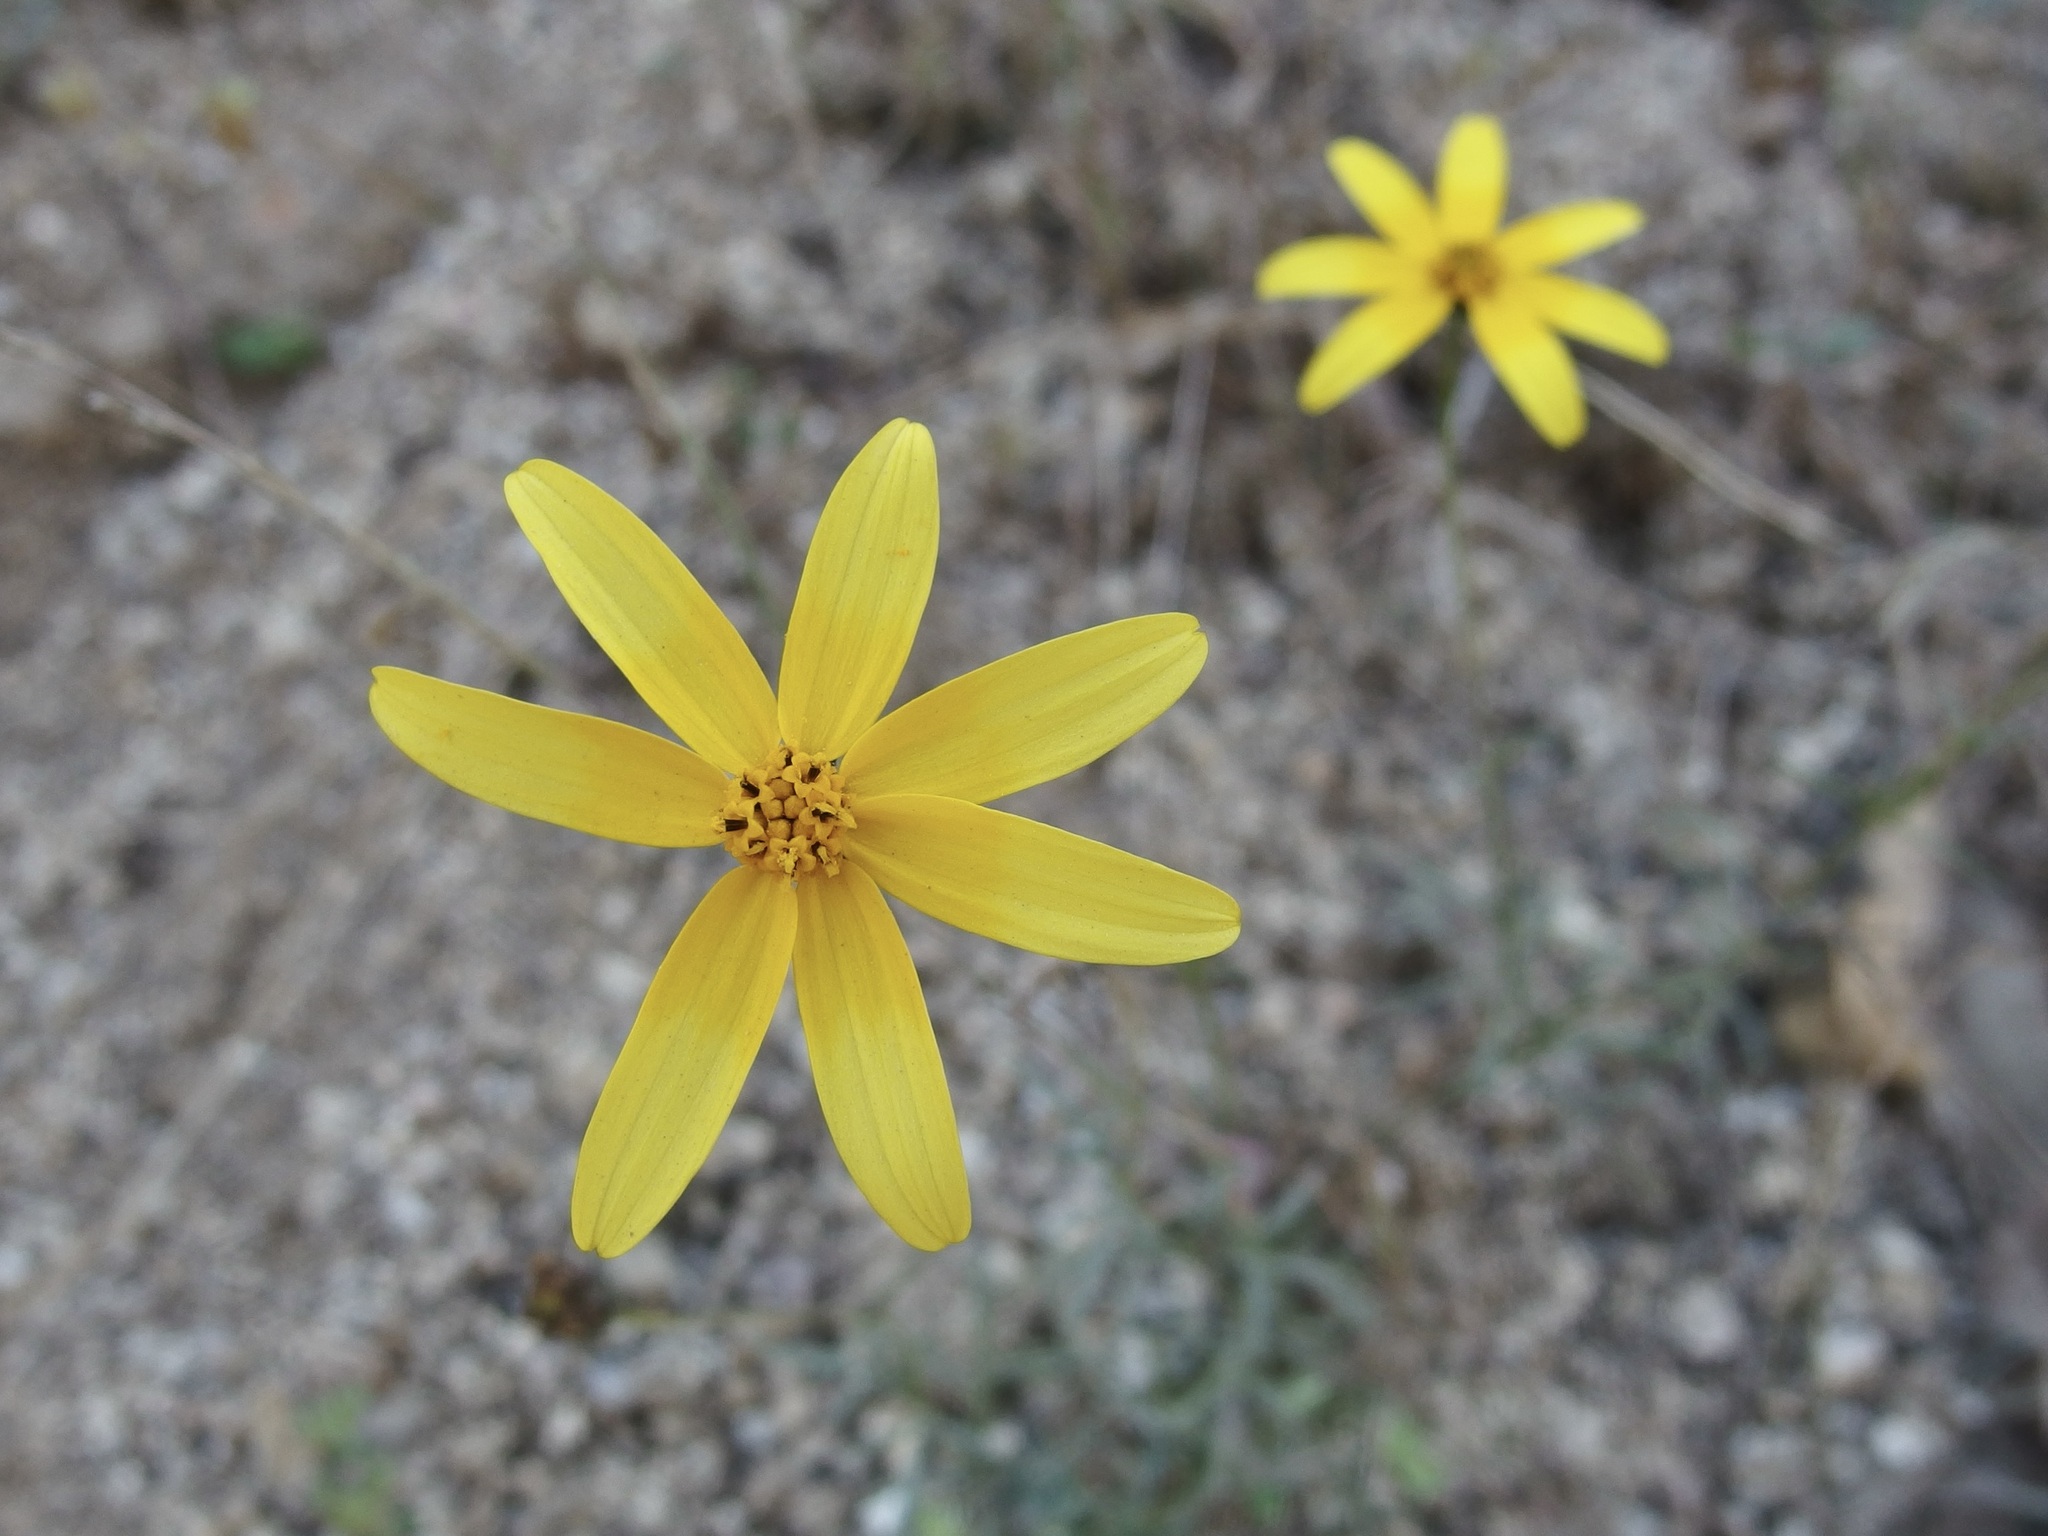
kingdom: Plantae
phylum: Tracheophyta
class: Magnoliopsida
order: Asterales
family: Asteraceae
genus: Bidens
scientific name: Bidens xanti
